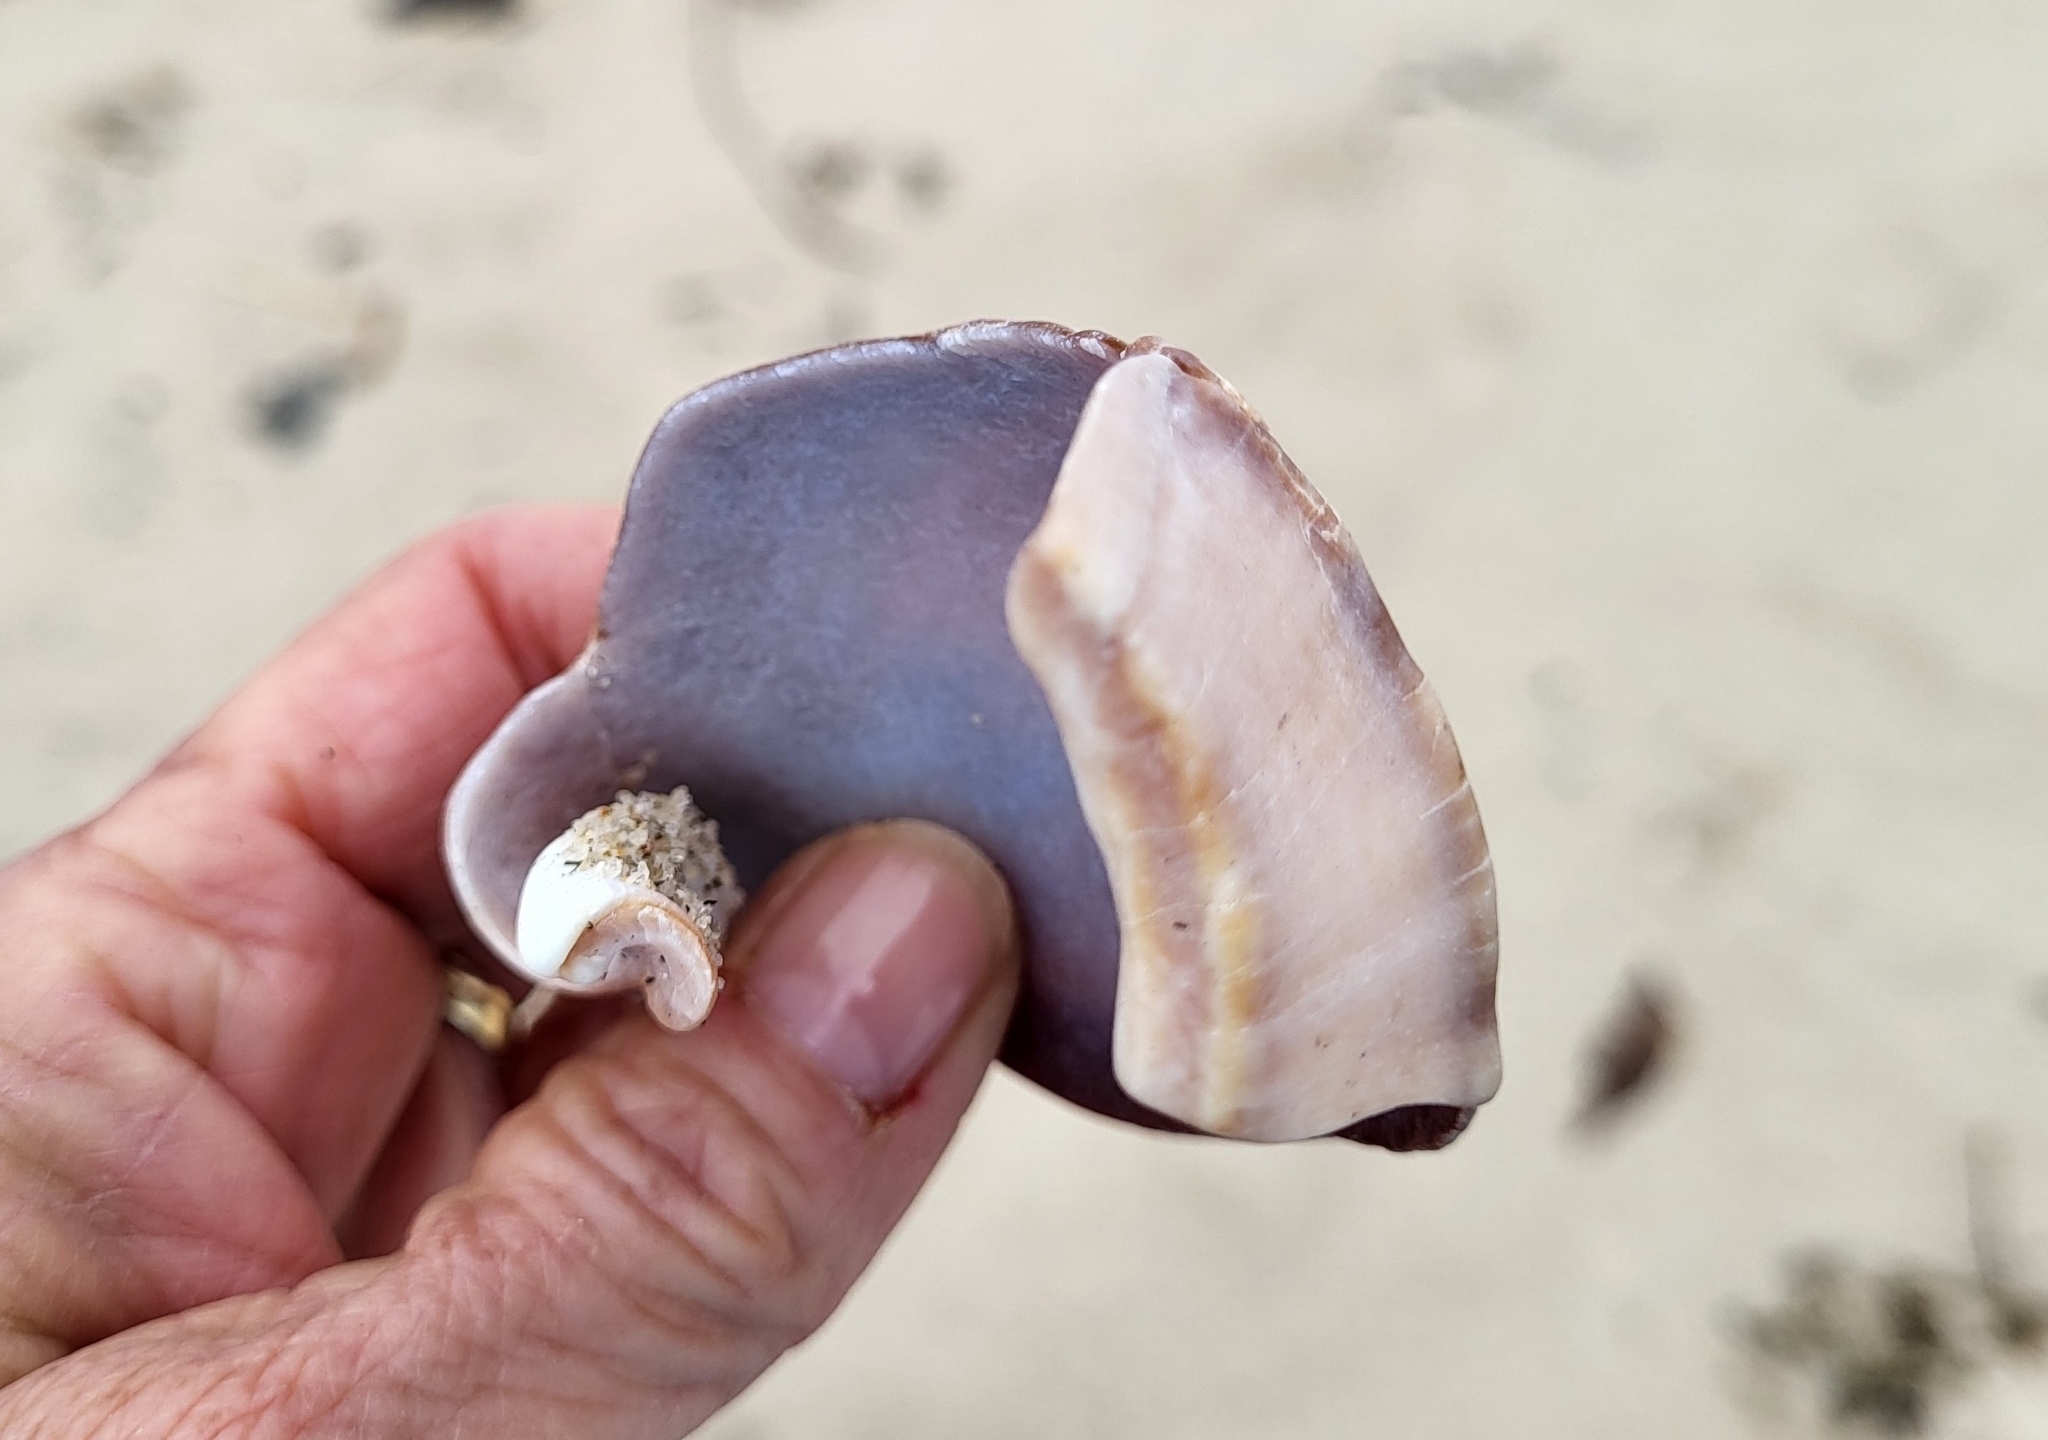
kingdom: Animalia
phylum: Mollusca
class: Gastropoda
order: Neogastropoda
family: Busyconidae
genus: Busycotypus
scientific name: Busycotypus canaliculatus
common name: Channeled whelk
